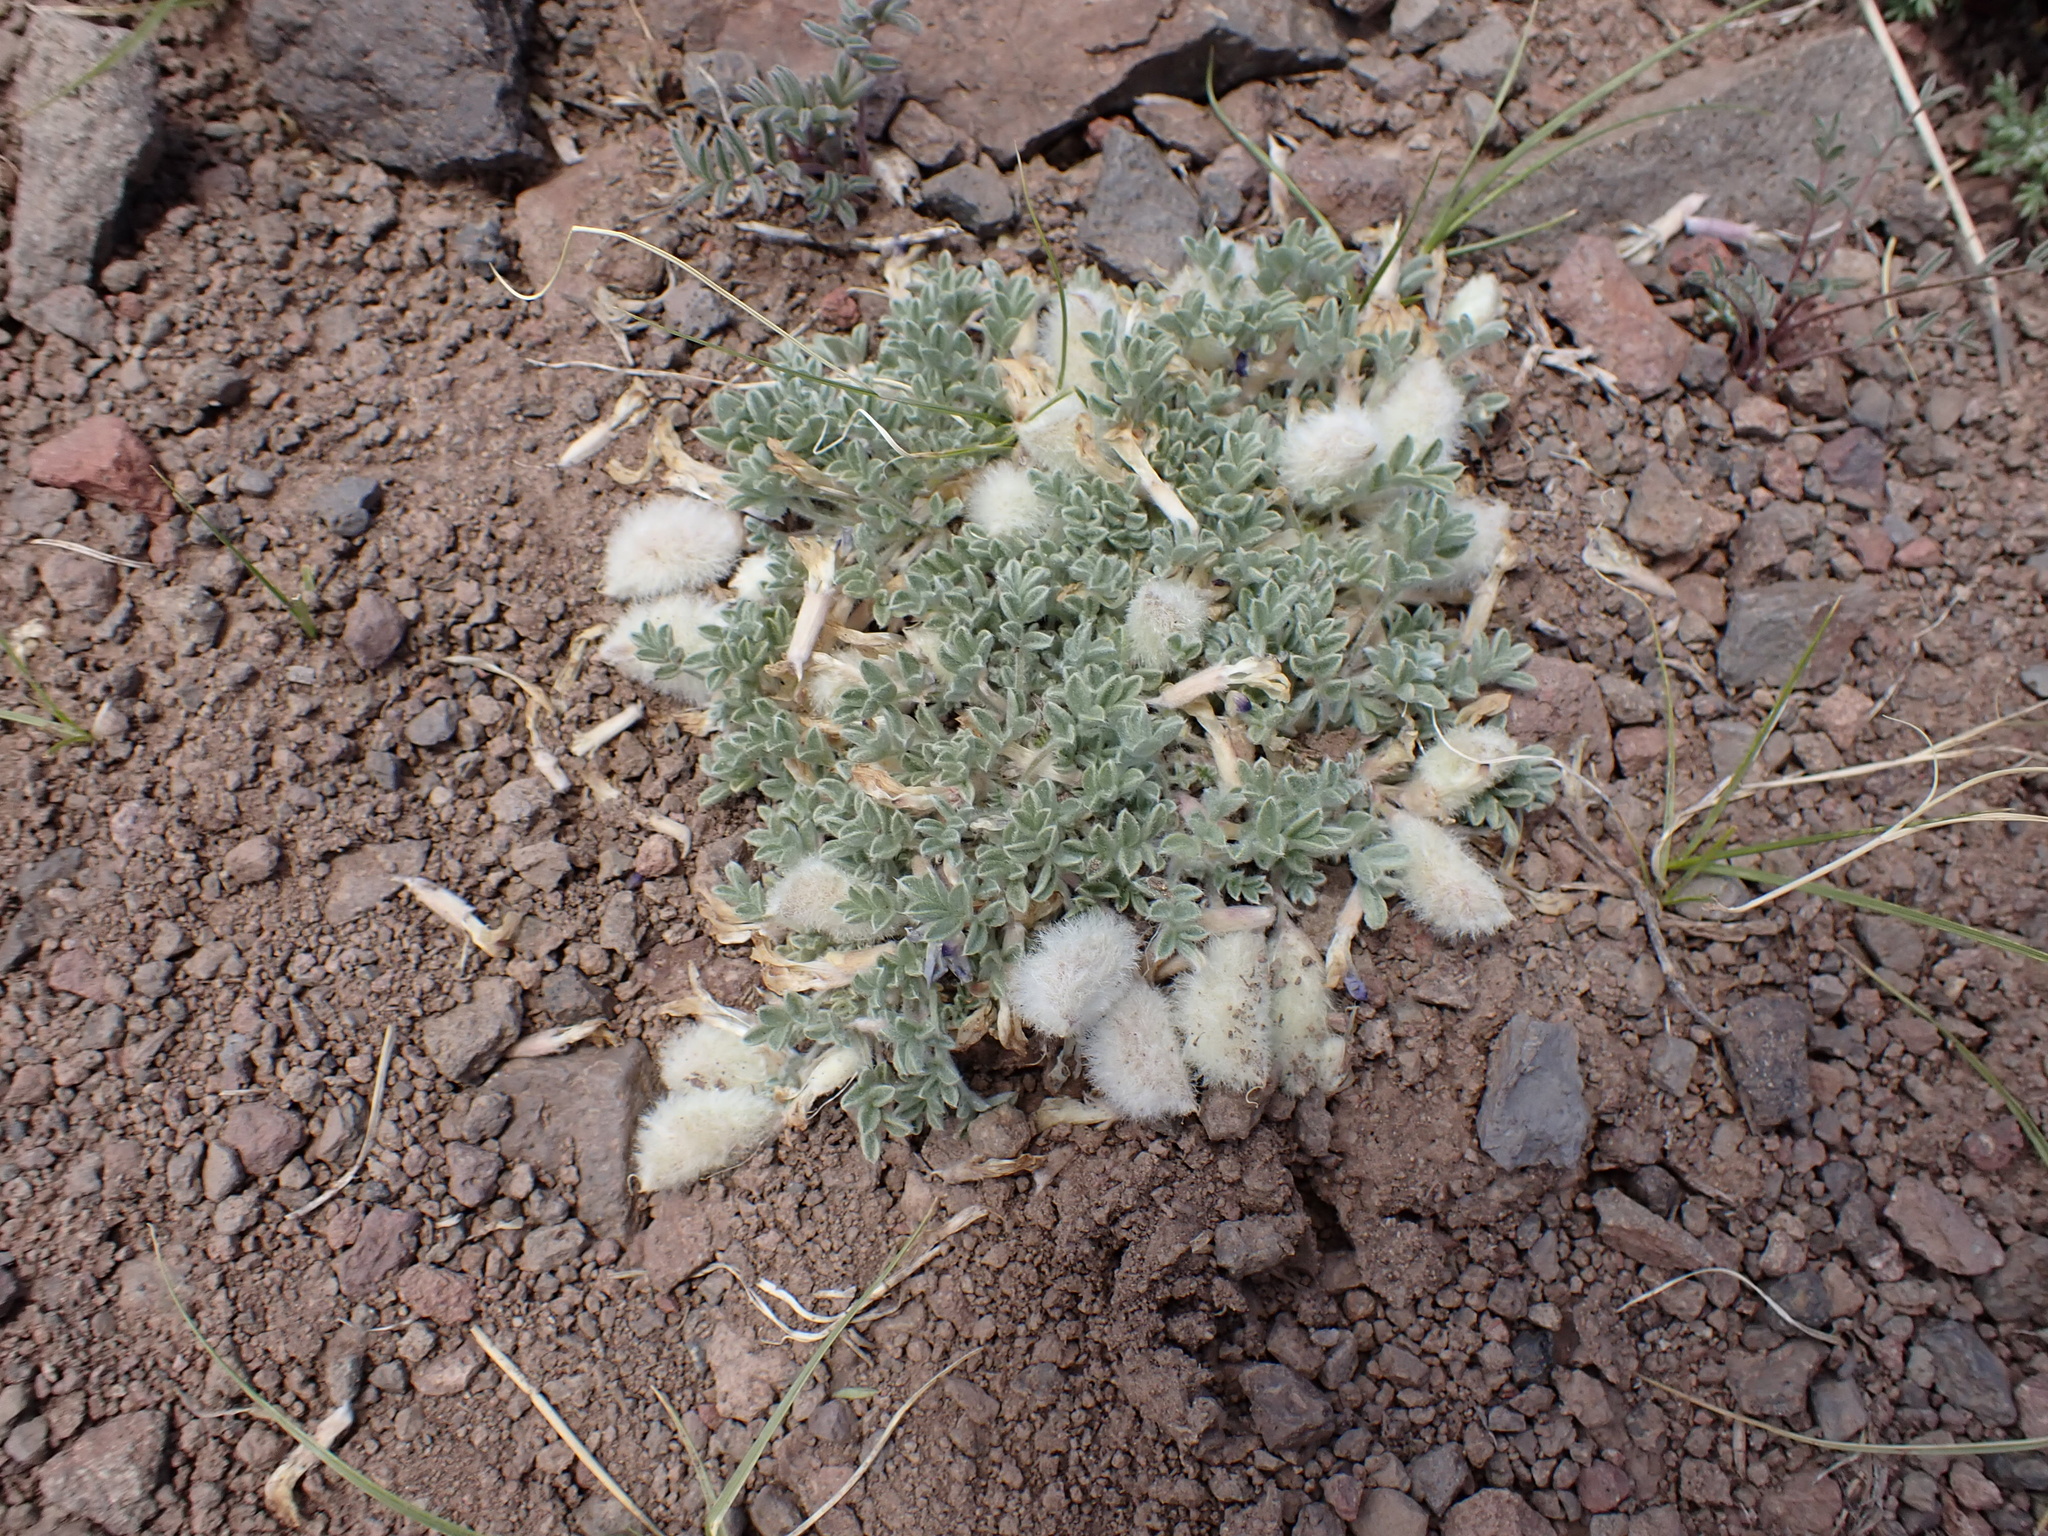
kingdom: Plantae
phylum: Tracheophyta
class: Magnoliopsida
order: Fabales
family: Fabaceae
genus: Astragalus
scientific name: Astragalus purshii
